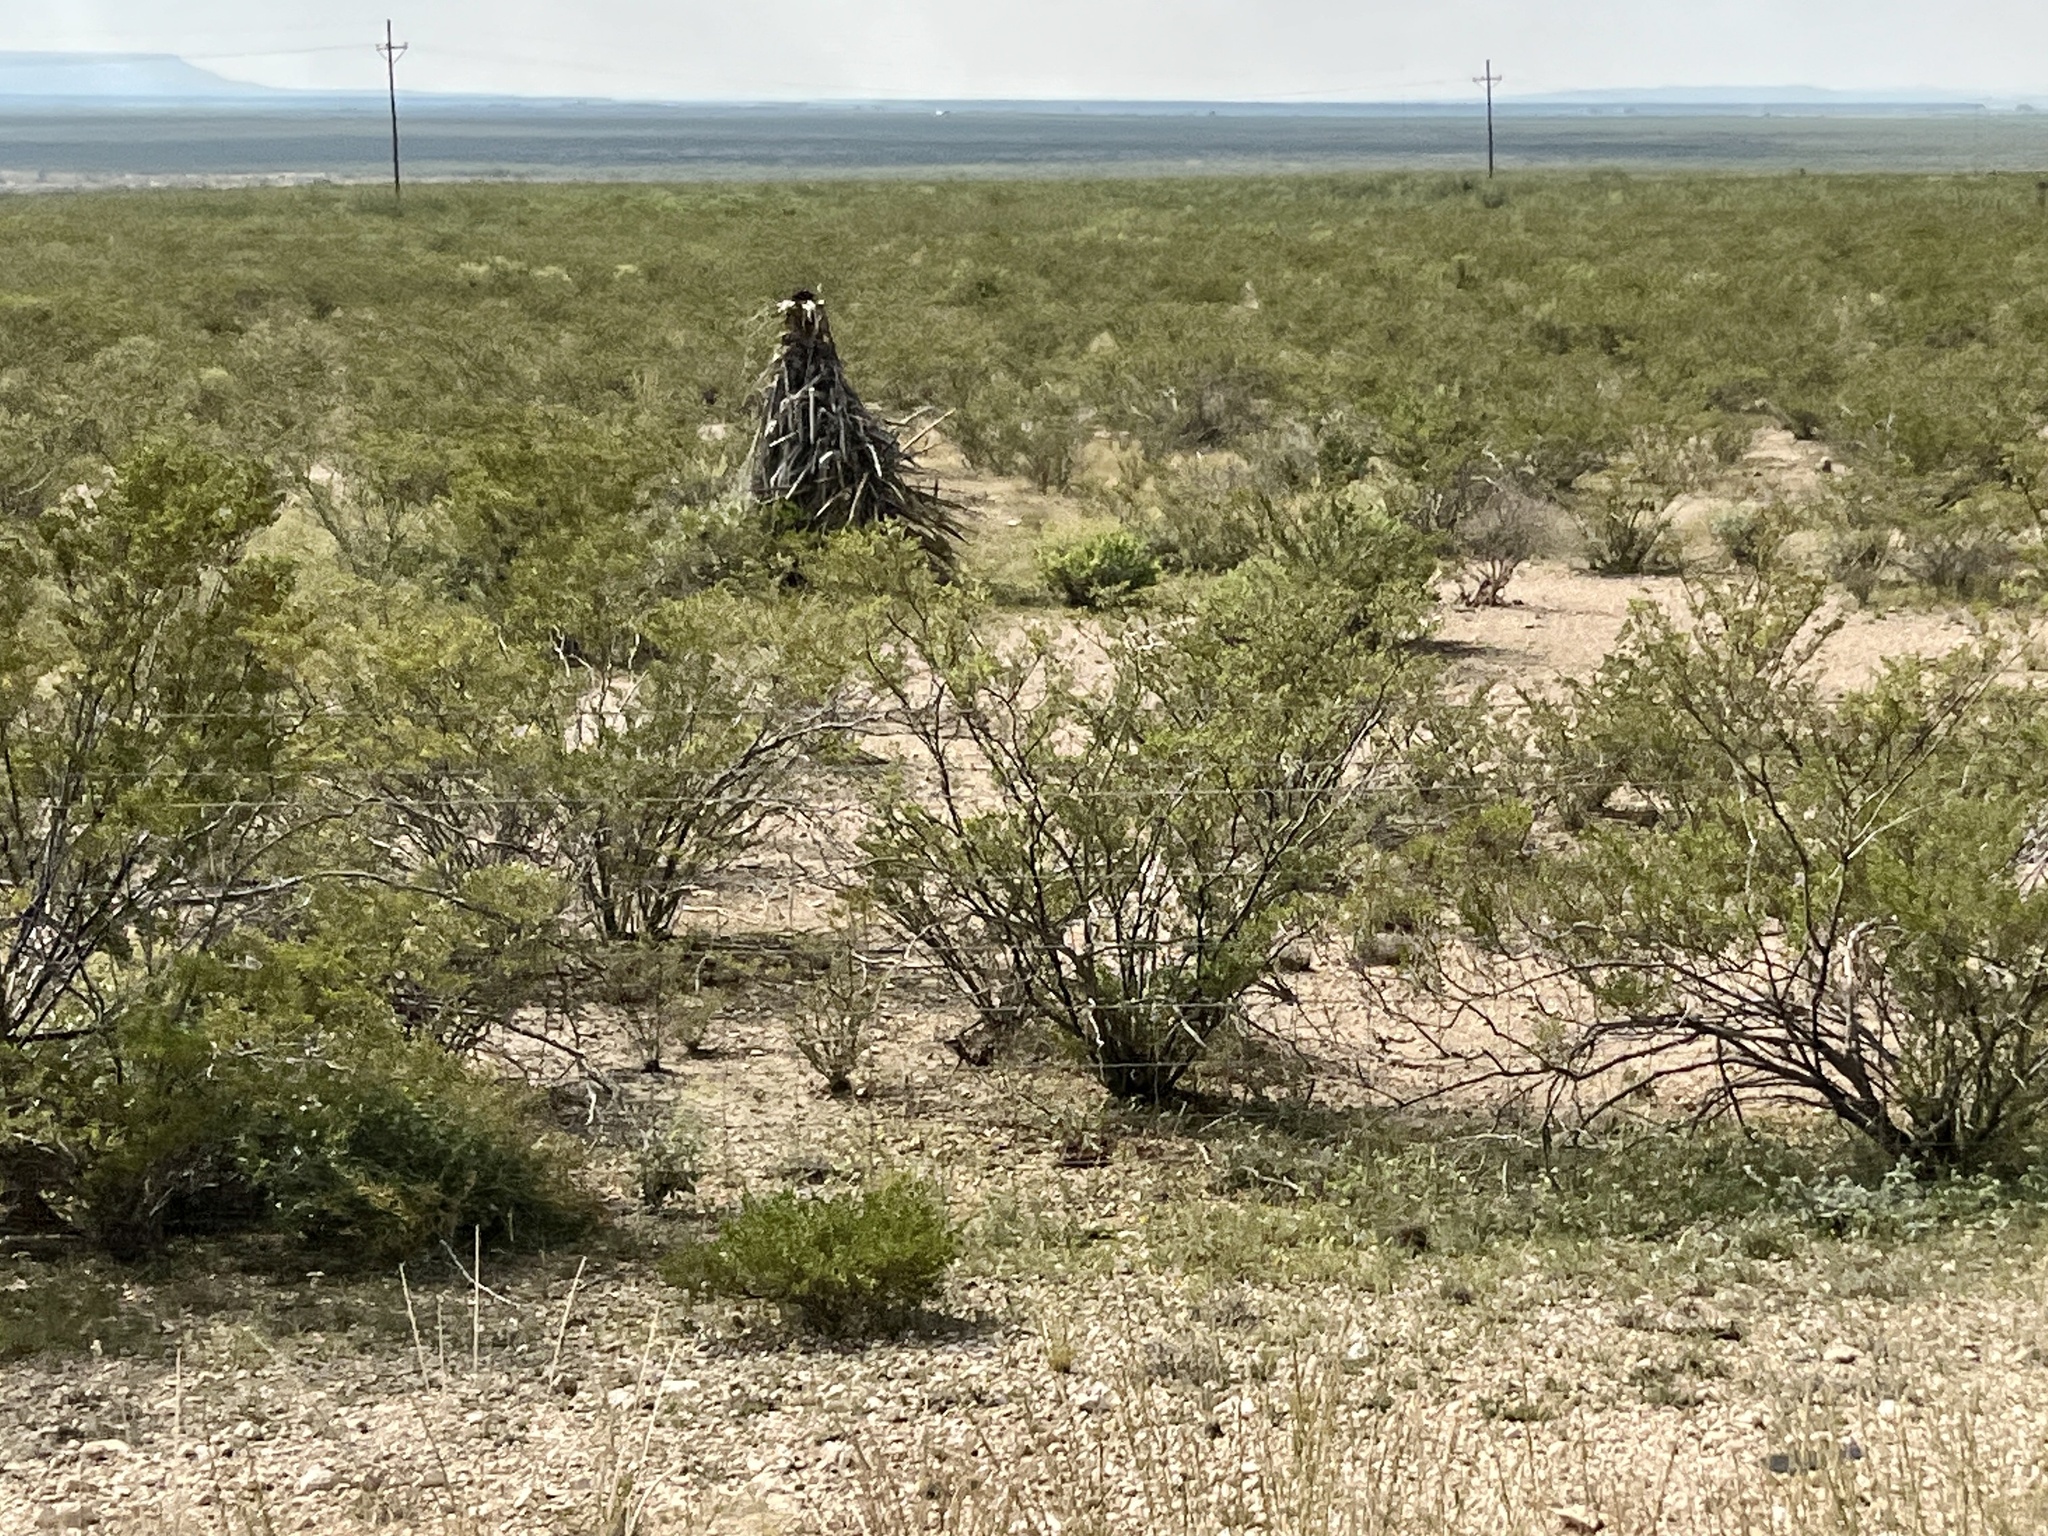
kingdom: Plantae
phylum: Tracheophyta
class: Magnoliopsida
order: Zygophyllales
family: Zygophyllaceae
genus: Larrea
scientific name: Larrea tridentata
